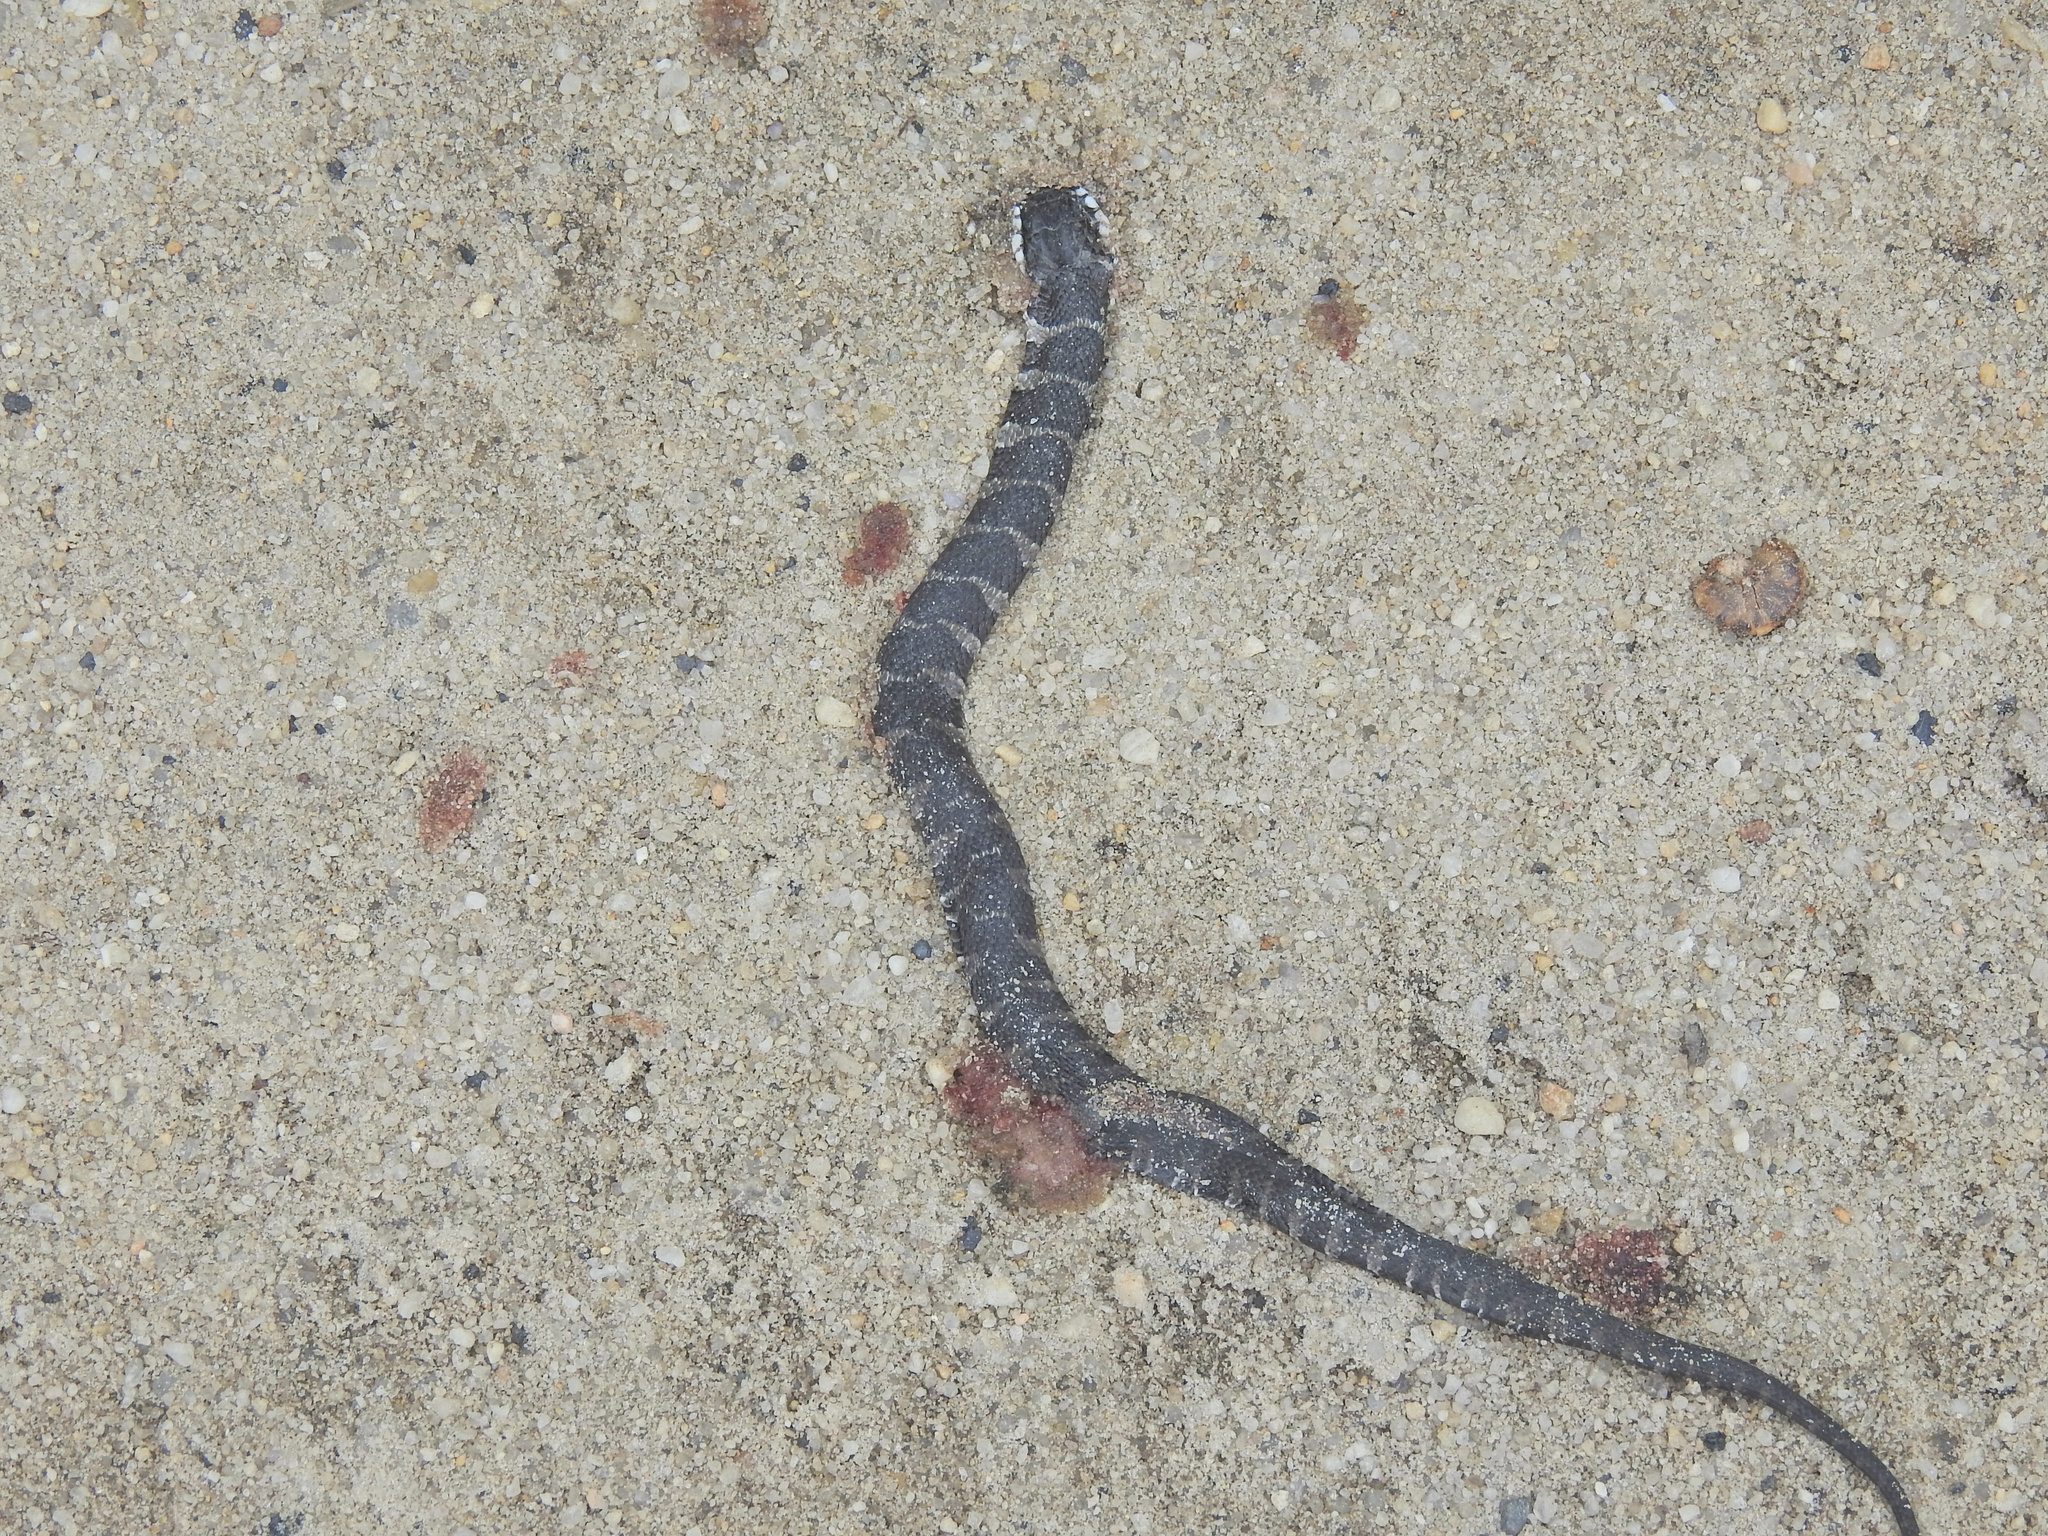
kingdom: Animalia
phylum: Chordata
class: Squamata
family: Colubridae
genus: Nerodia
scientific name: Nerodia sipedon
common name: Northern water snake
